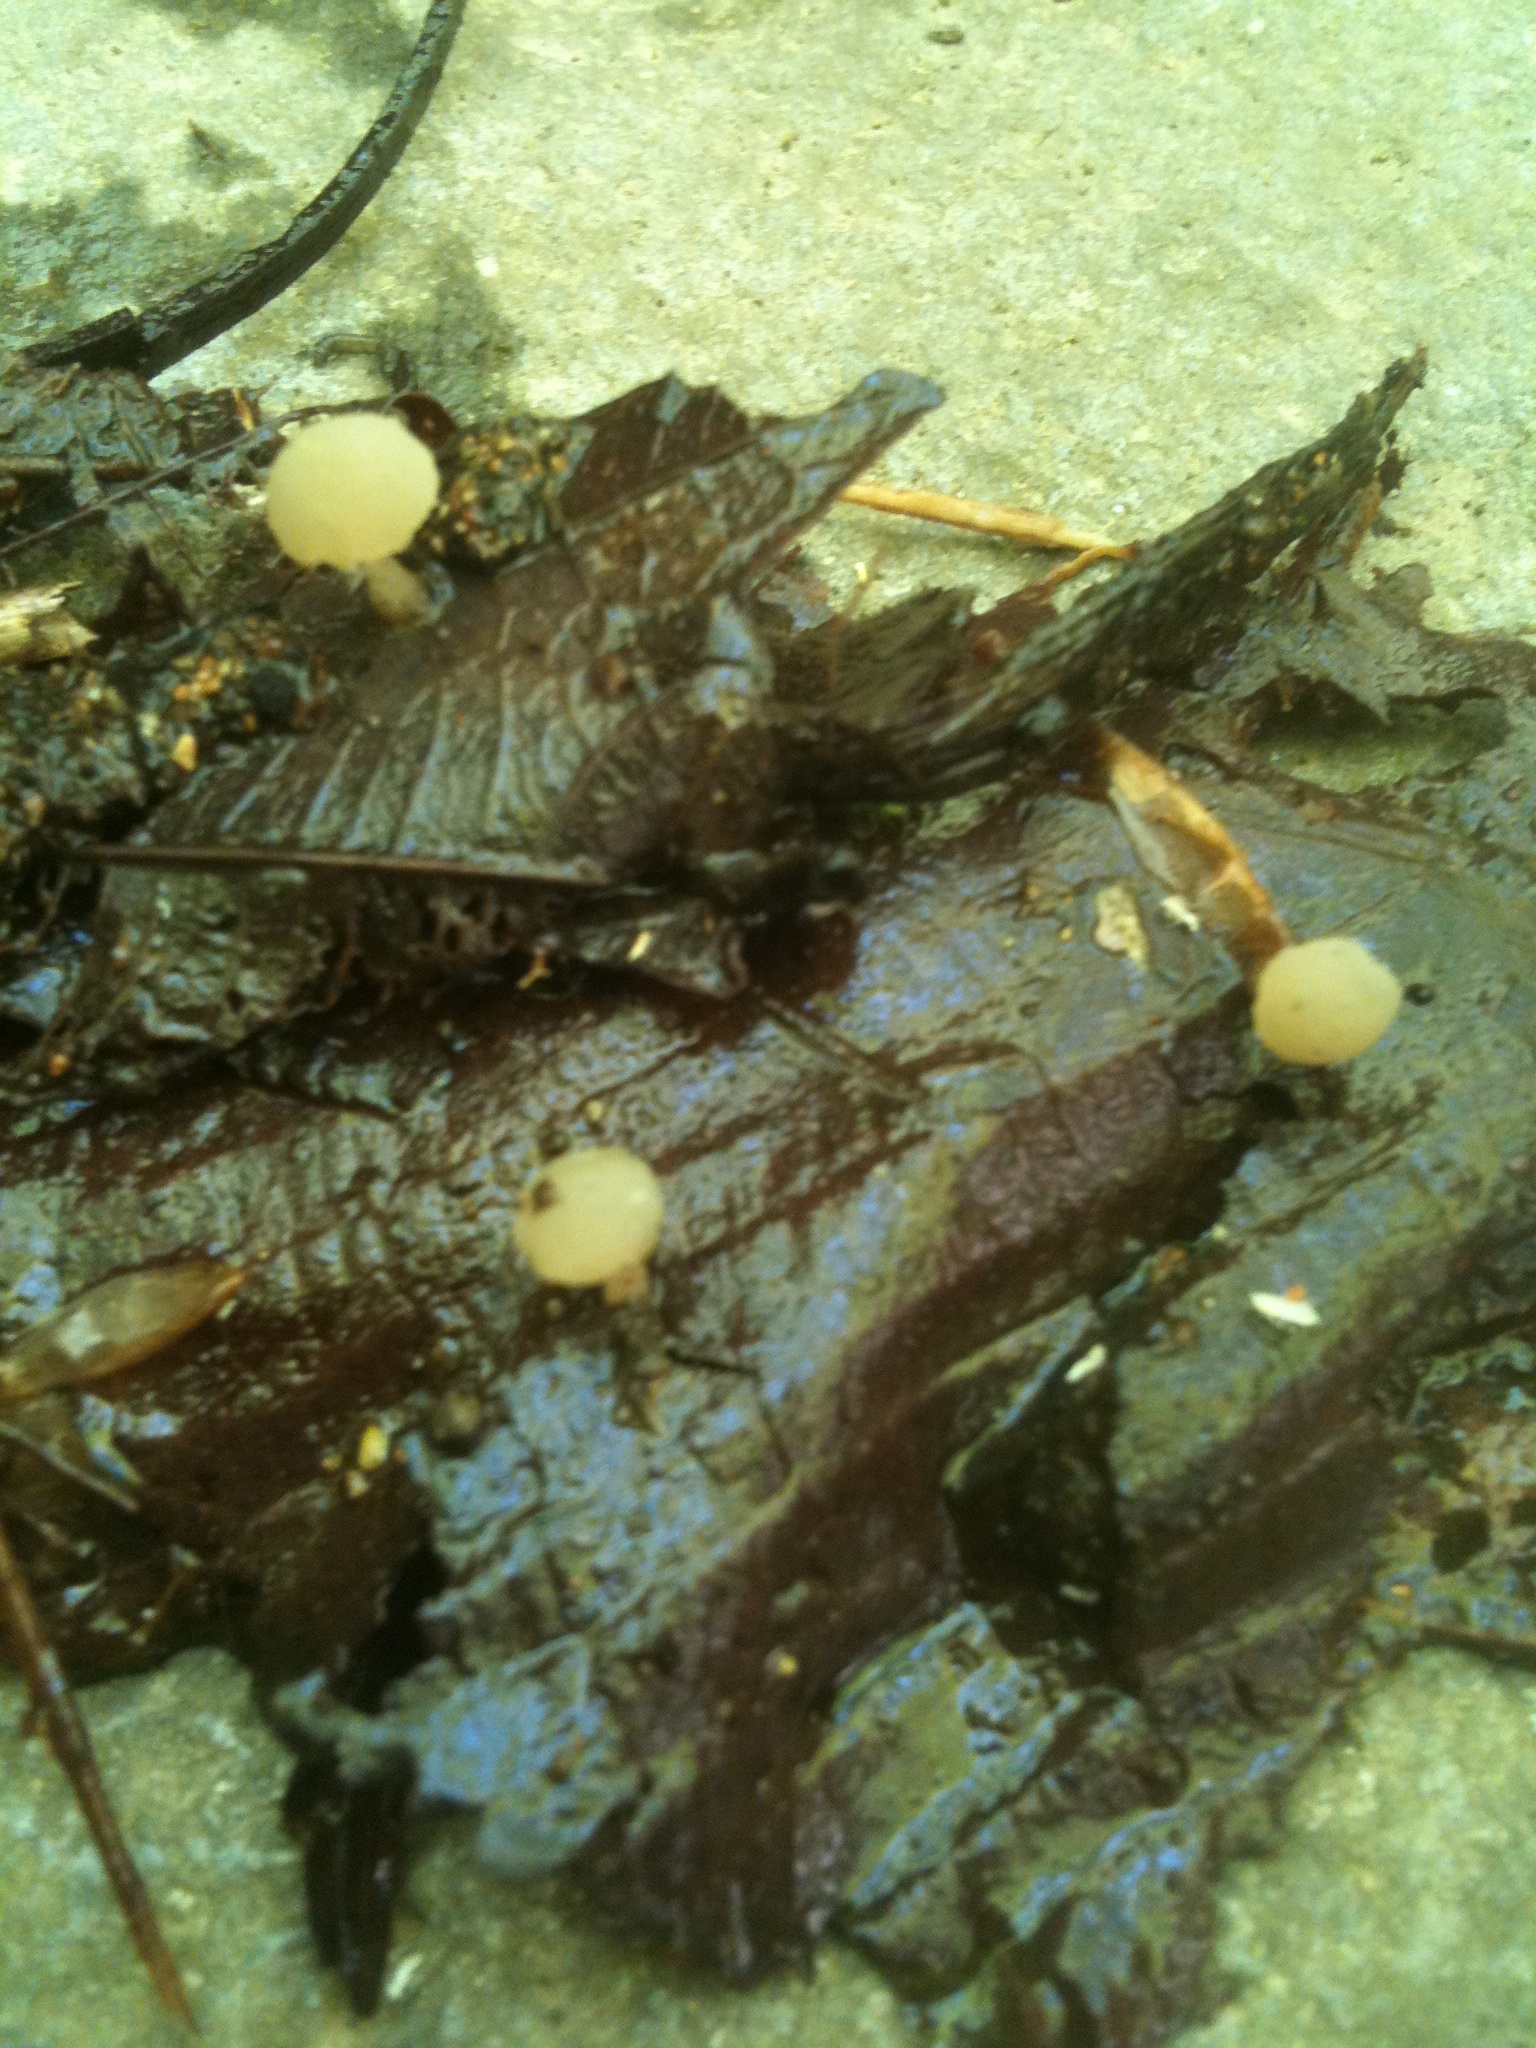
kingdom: Fungi
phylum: Ascomycota
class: Leotiomycetes
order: Helotiales
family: Tricladiaceae
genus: Cudoniella
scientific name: Cudoniella clavus
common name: Spring pin
